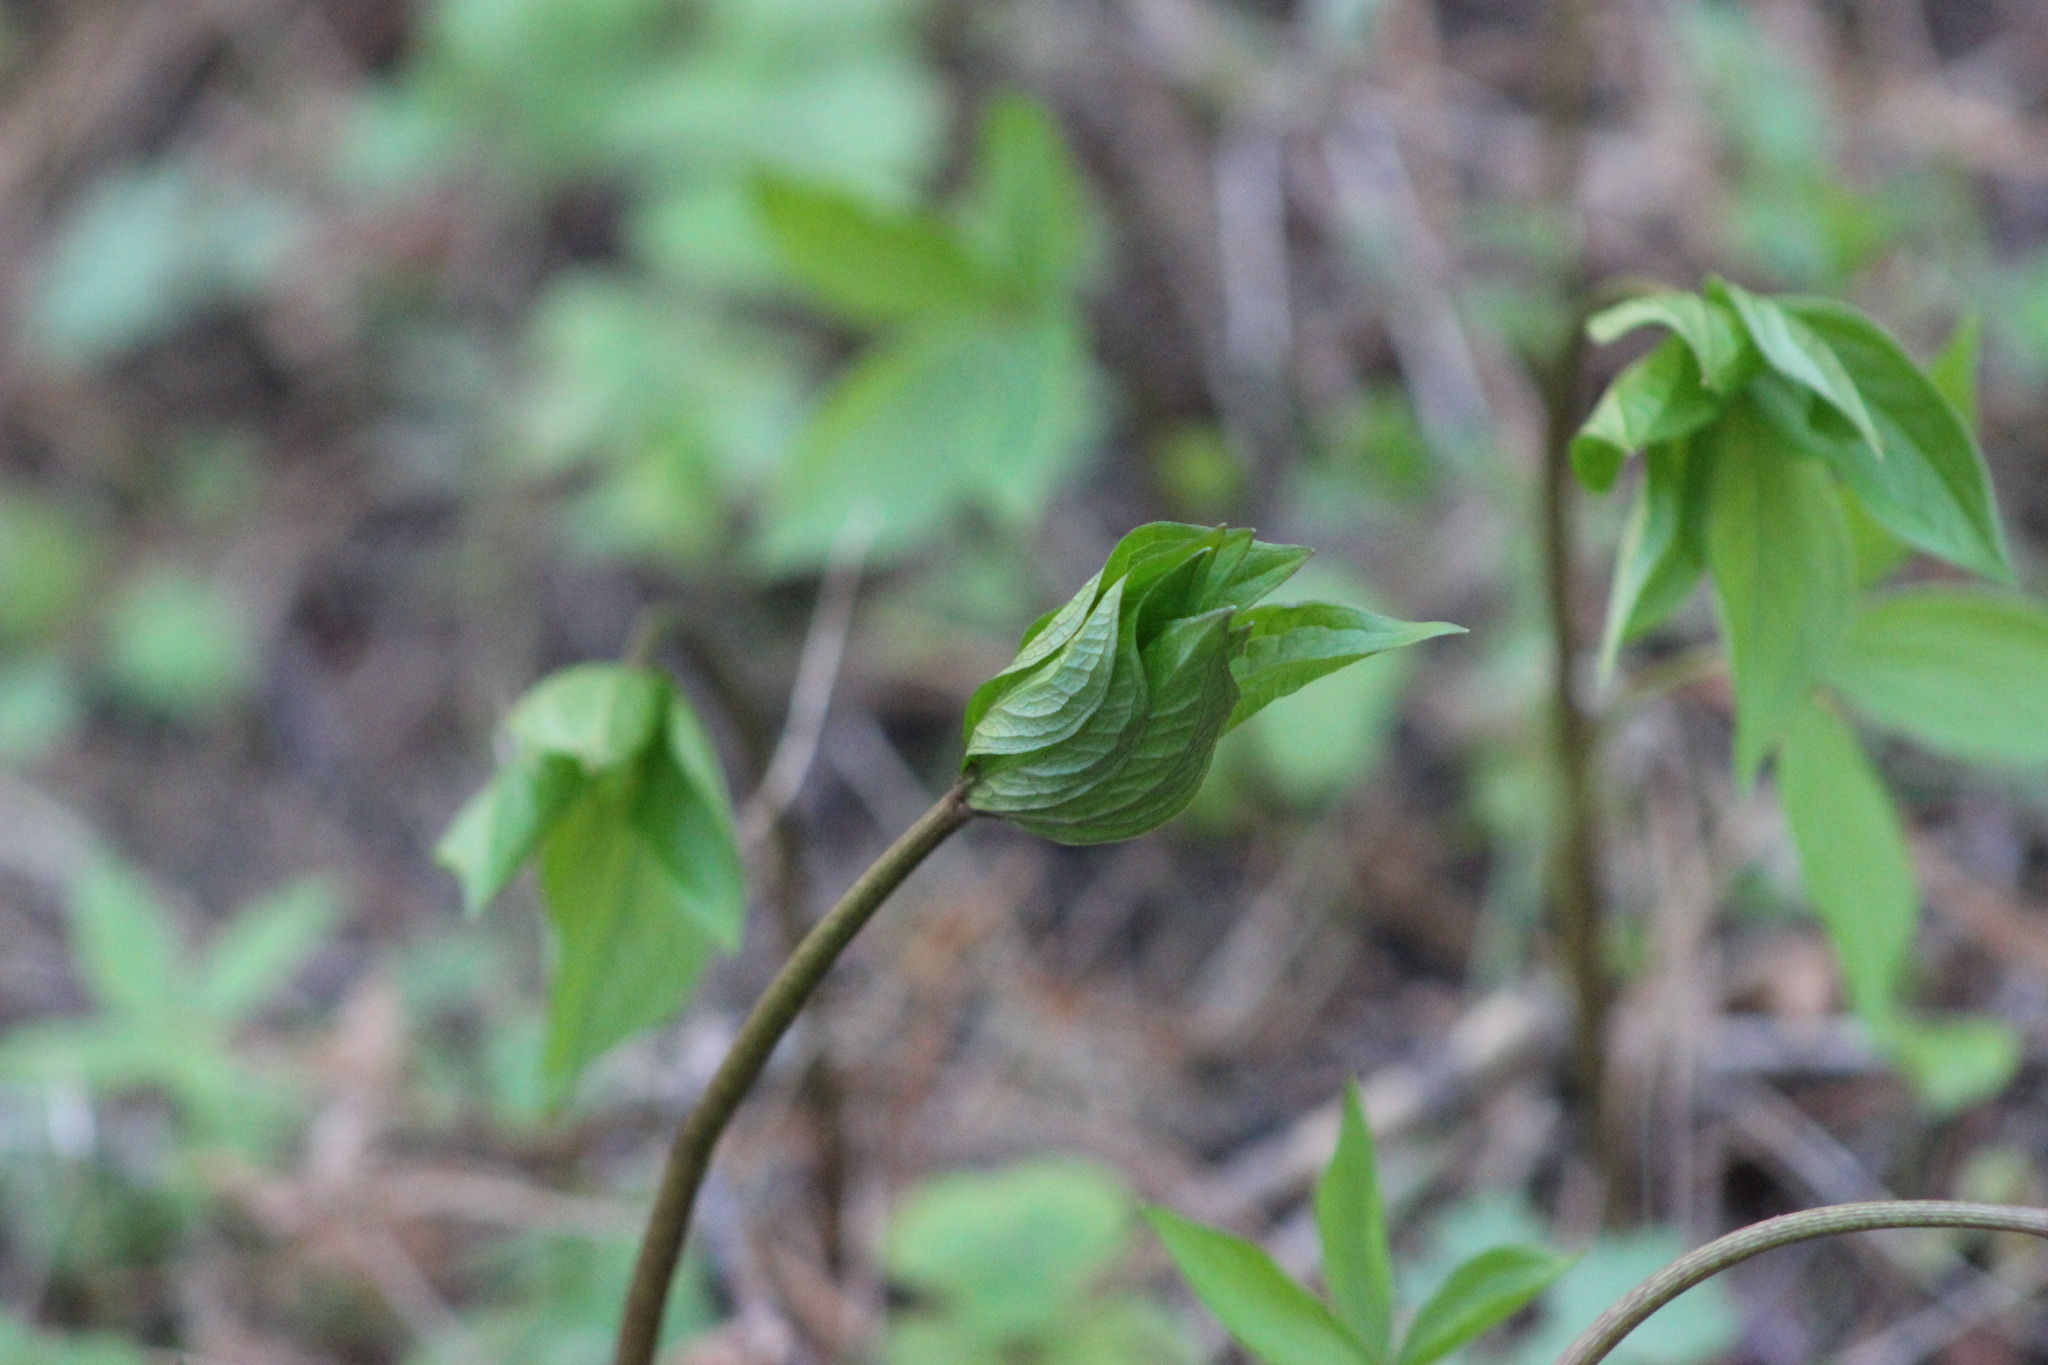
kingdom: Plantae
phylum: Tracheophyta
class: Liliopsida
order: Liliales
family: Melanthiaceae
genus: Paris
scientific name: Paris quadrifolia
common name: Herb-paris
